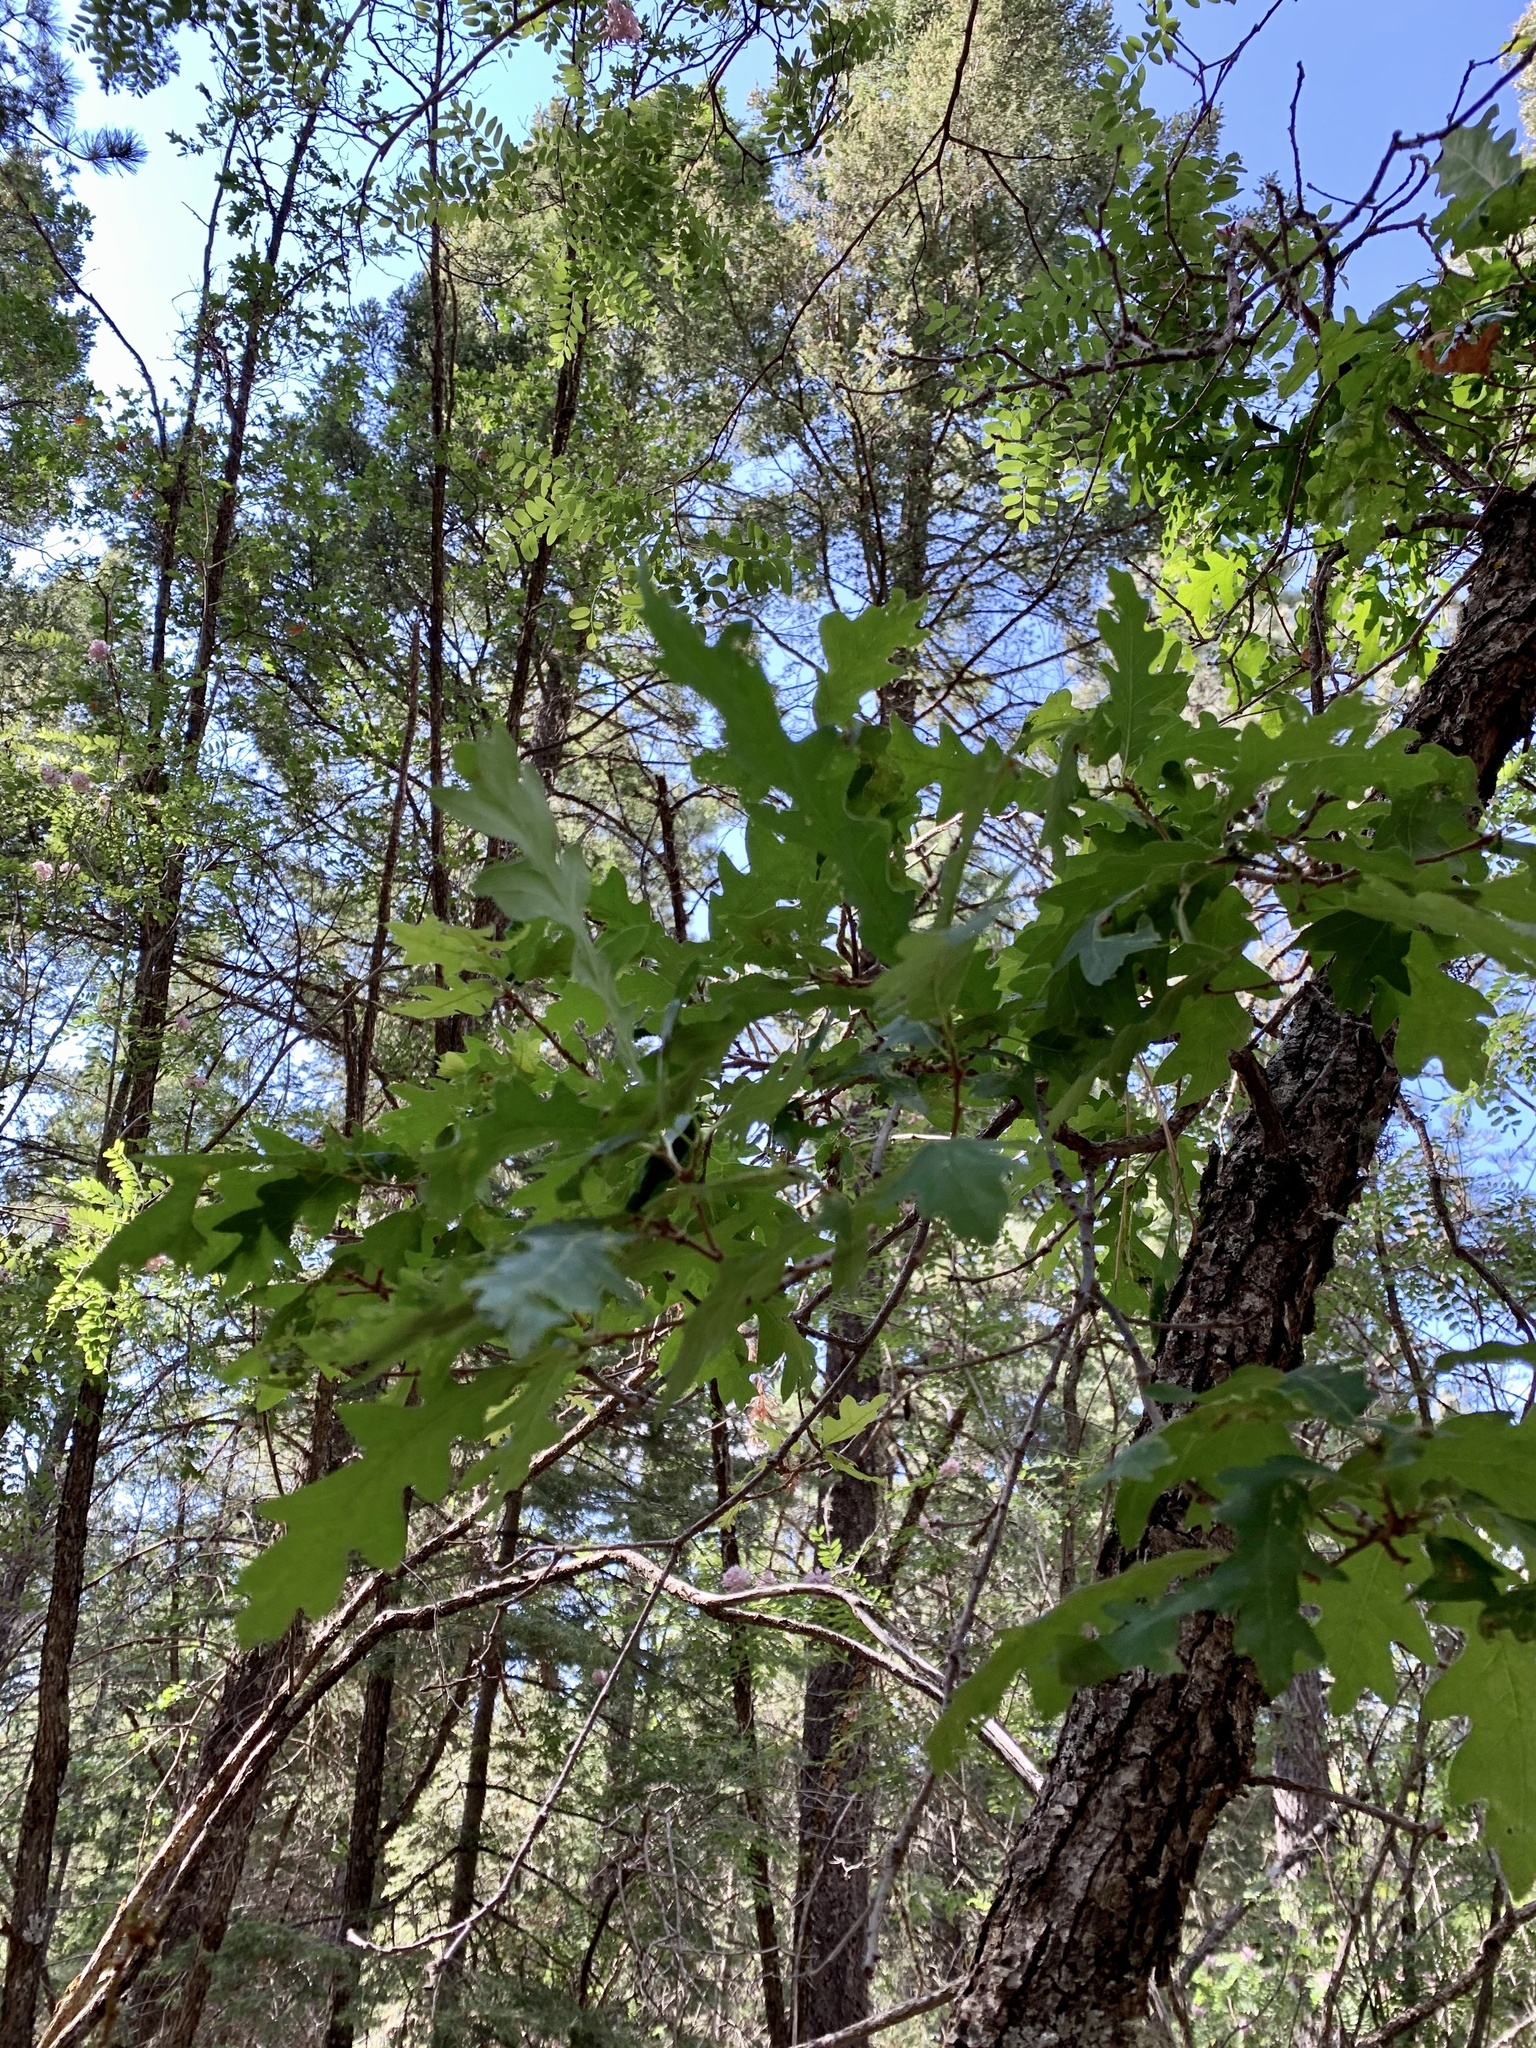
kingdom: Plantae
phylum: Tracheophyta
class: Magnoliopsida
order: Fagales
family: Fagaceae
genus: Quercus
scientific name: Quercus gambelii
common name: Gambel oak
